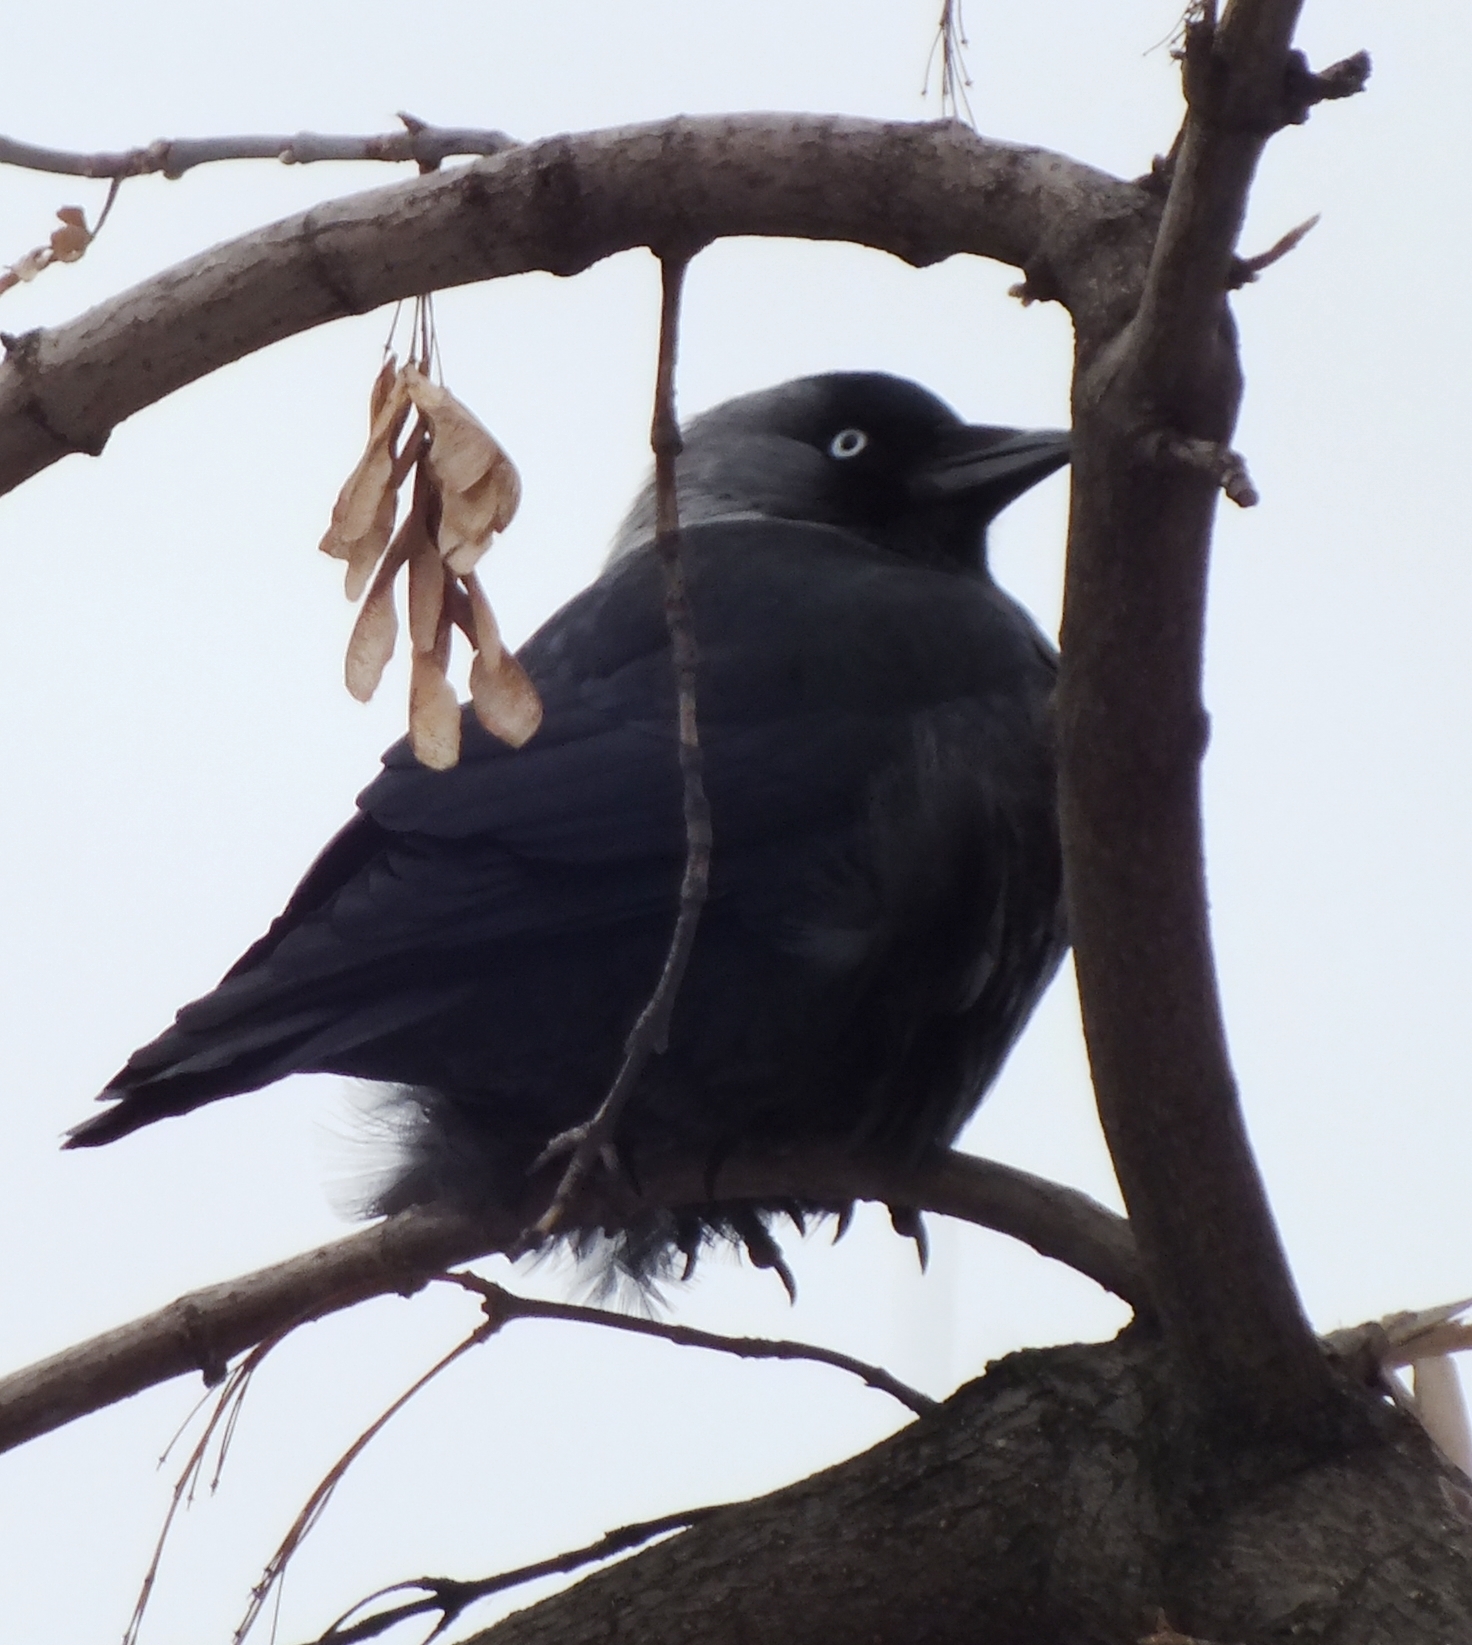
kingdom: Animalia
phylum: Chordata
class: Aves
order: Passeriformes
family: Corvidae
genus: Coloeus
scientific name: Coloeus monedula
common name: Western jackdaw
